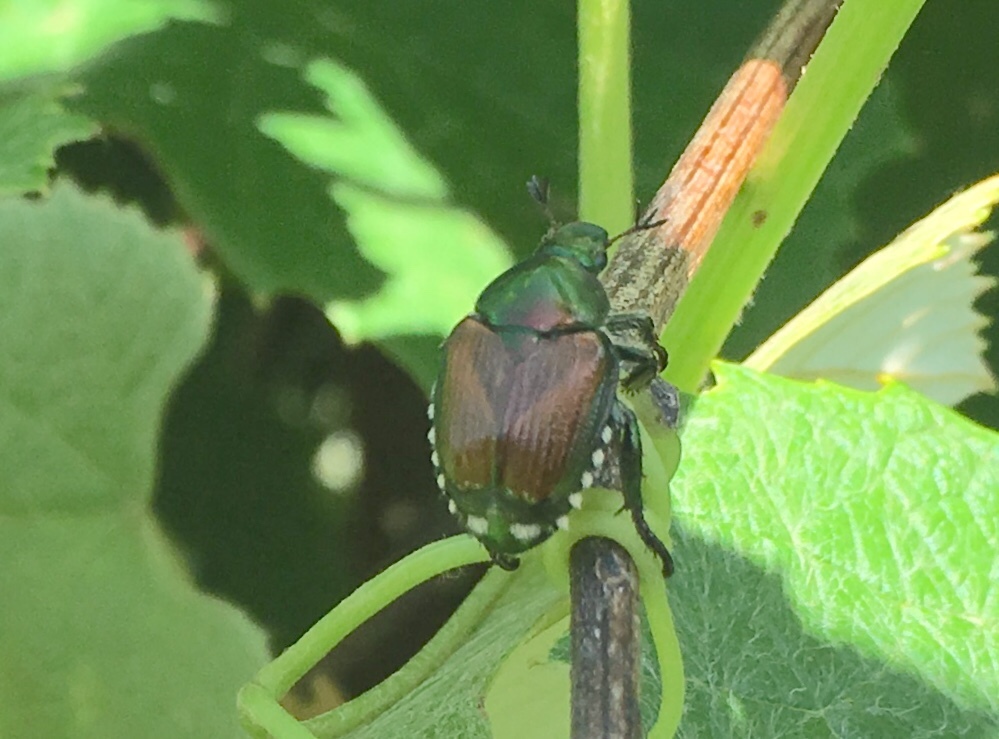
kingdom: Animalia
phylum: Arthropoda
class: Insecta
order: Coleoptera
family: Scarabaeidae
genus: Popillia
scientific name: Popillia japonica
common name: Japanese beetle
